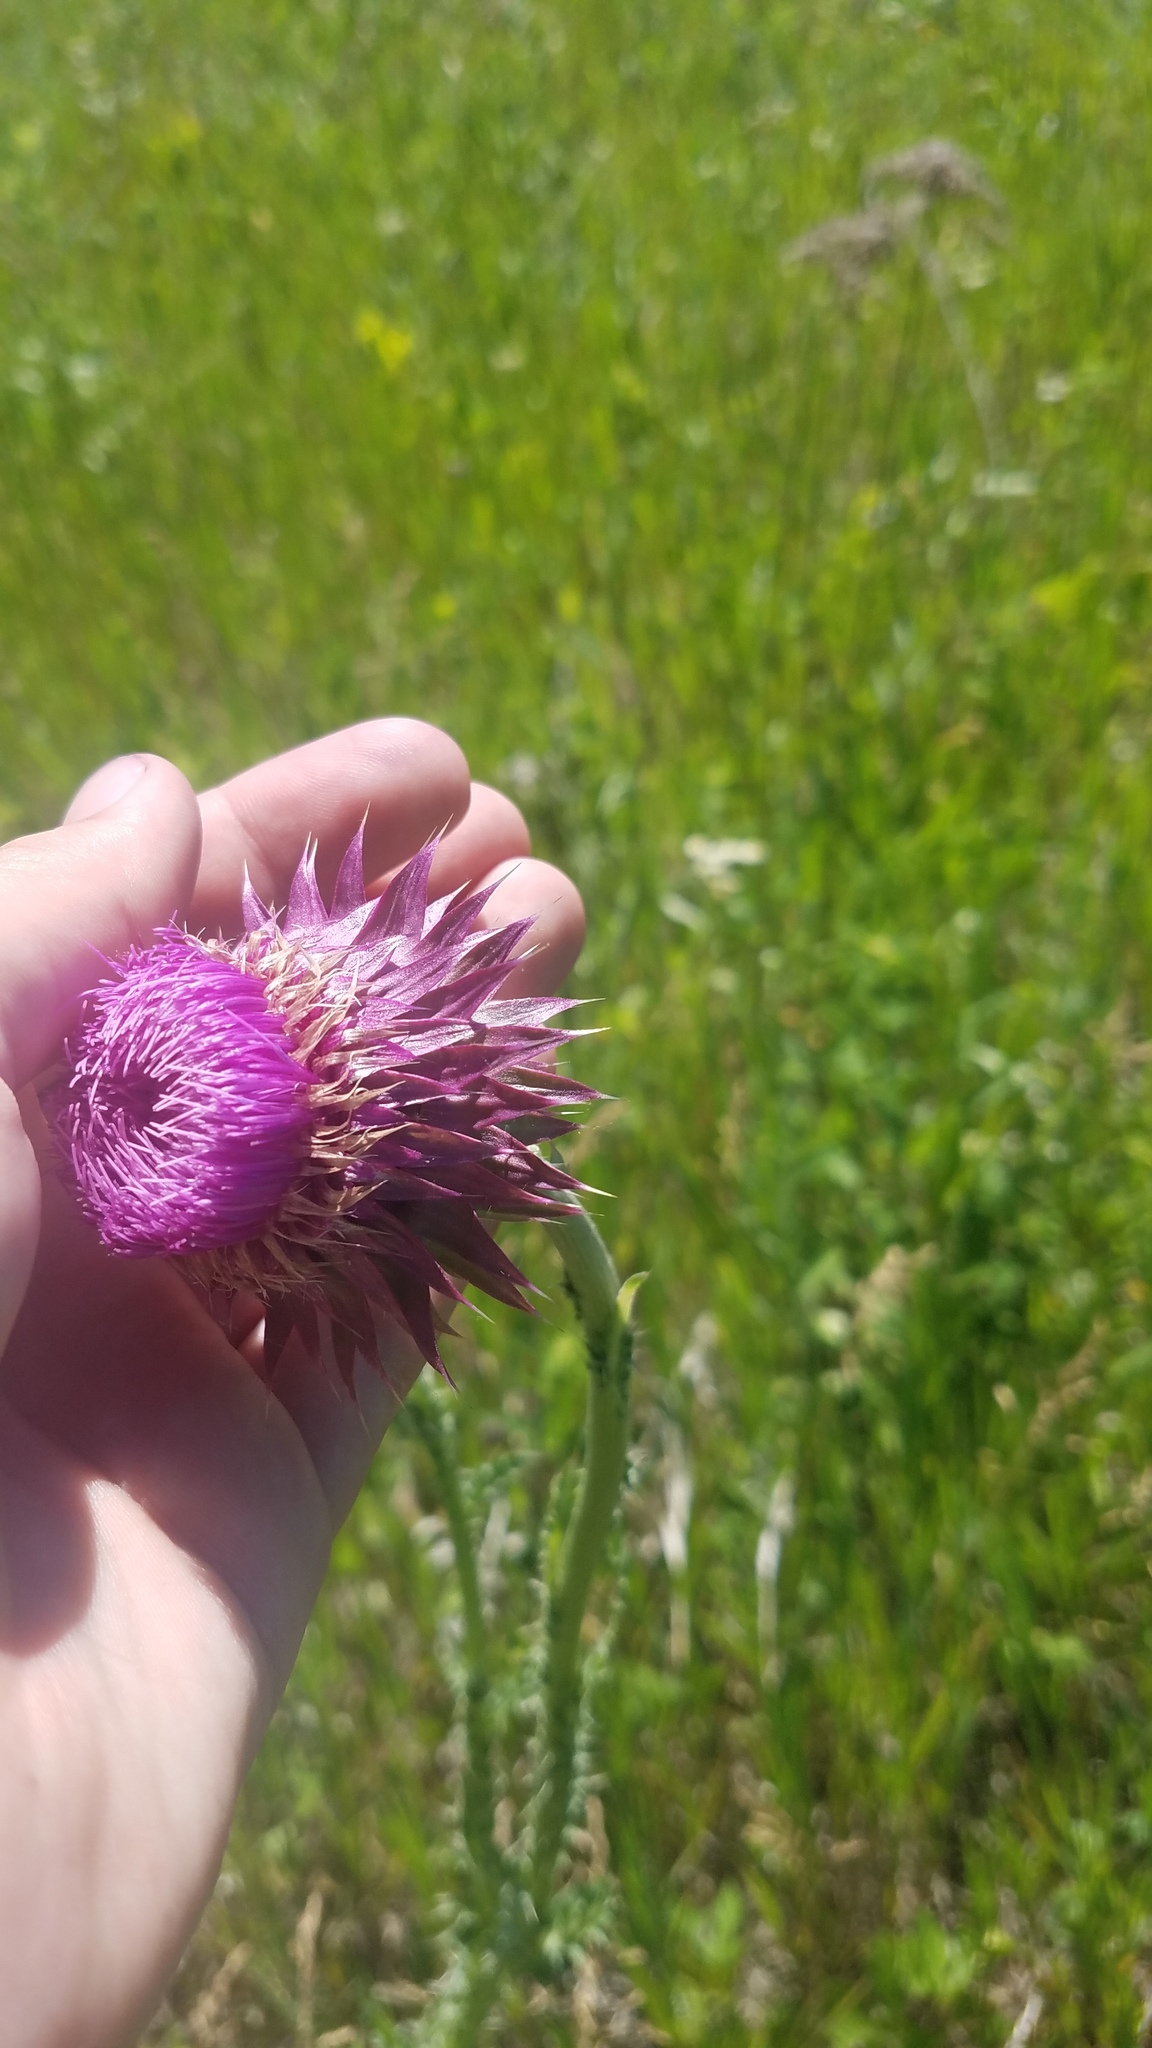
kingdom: Plantae
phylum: Tracheophyta
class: Magnoliopsida
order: Asterales
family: Asteraceae
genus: Carduus
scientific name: Carduus nutans
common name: Musk thistle
